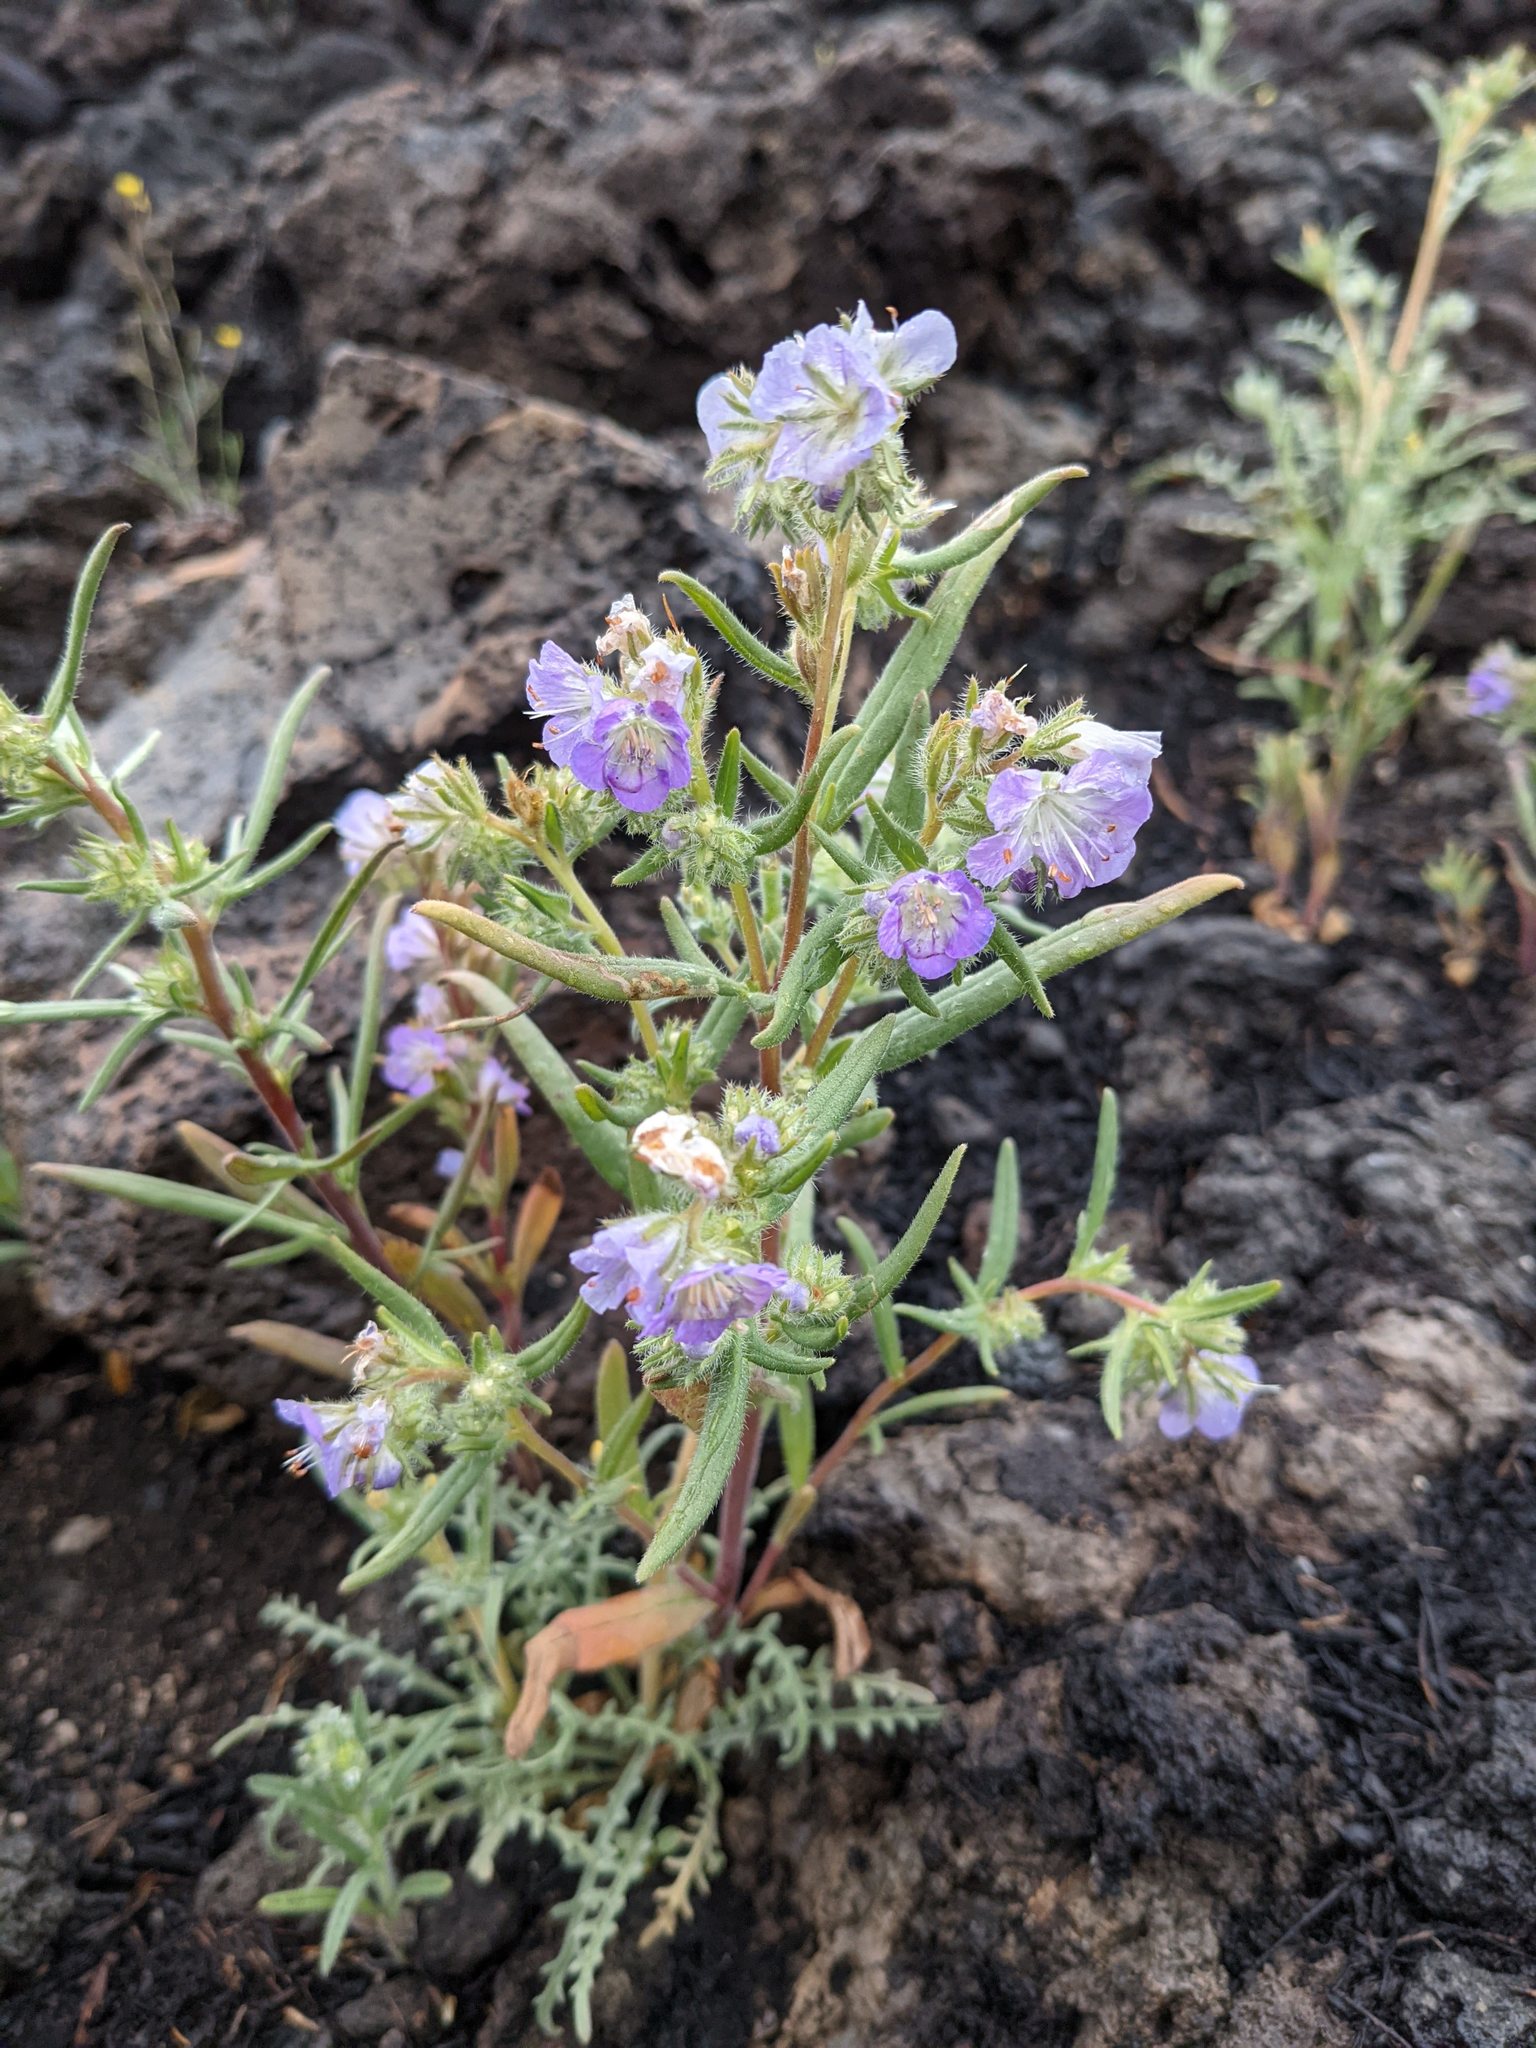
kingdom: Plantae
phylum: Tracheophyta
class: Magnoliopsida
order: Boraginales
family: Hydrophyllaceae
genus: Phacelia
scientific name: Phacelia linearis
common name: Linear-leaved phacelia
